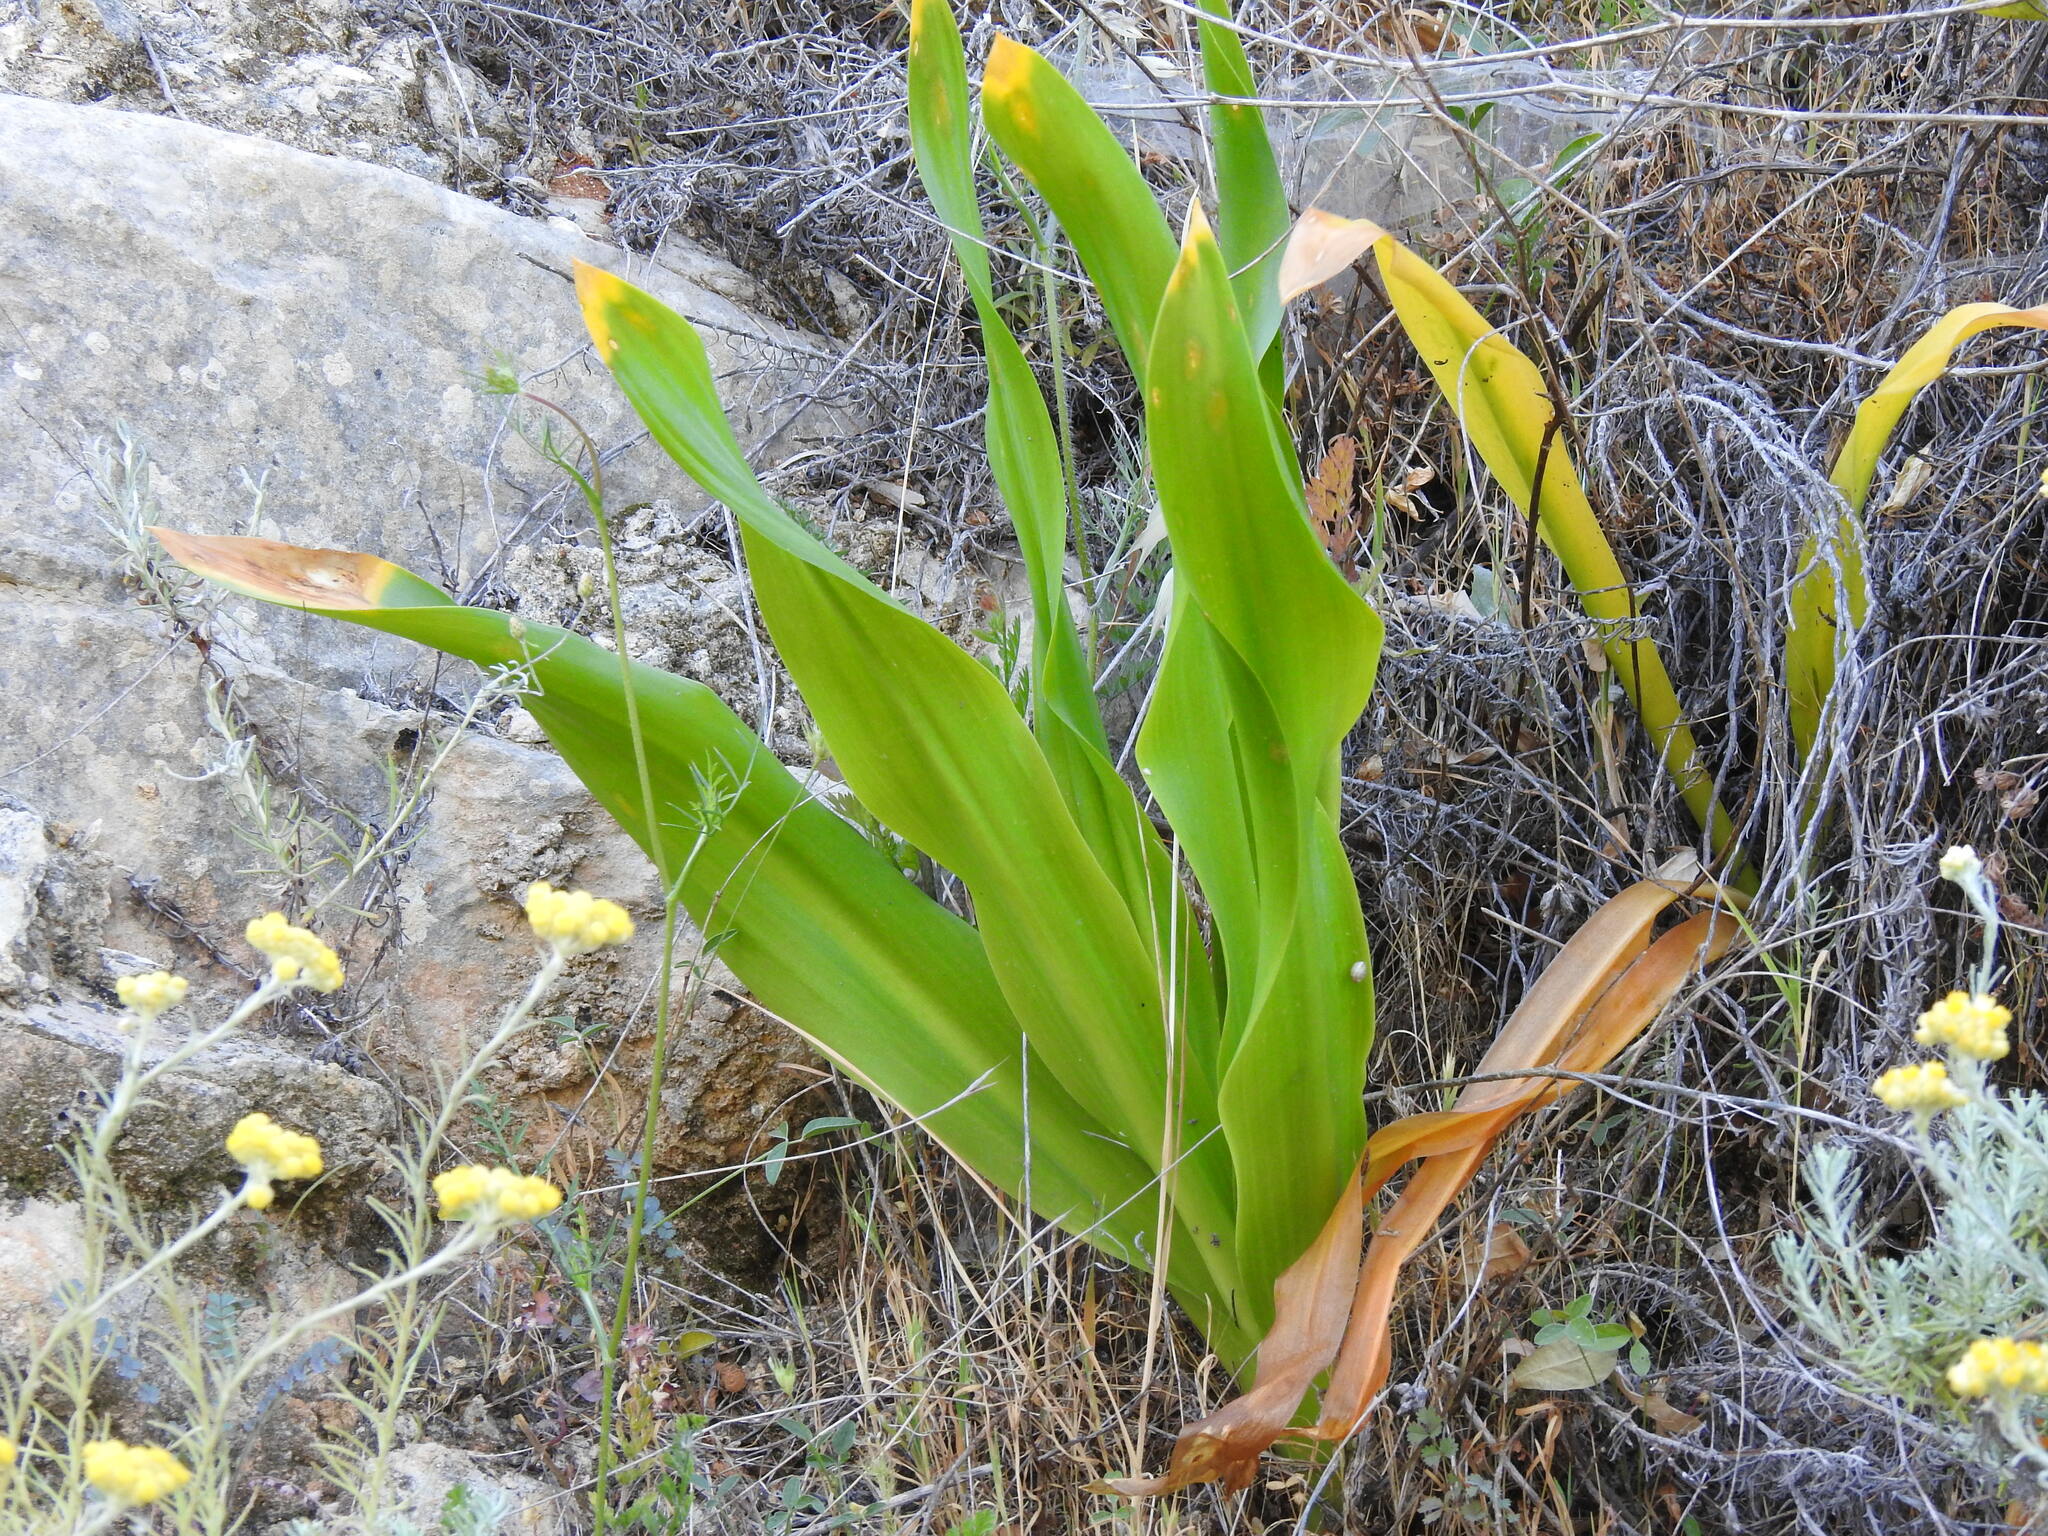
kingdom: Plantae
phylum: Tracheophyta
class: Liliopsida
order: Asparagales
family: Asparagaceae
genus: Drimia
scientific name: Drimia maritima
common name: Maritime squill
